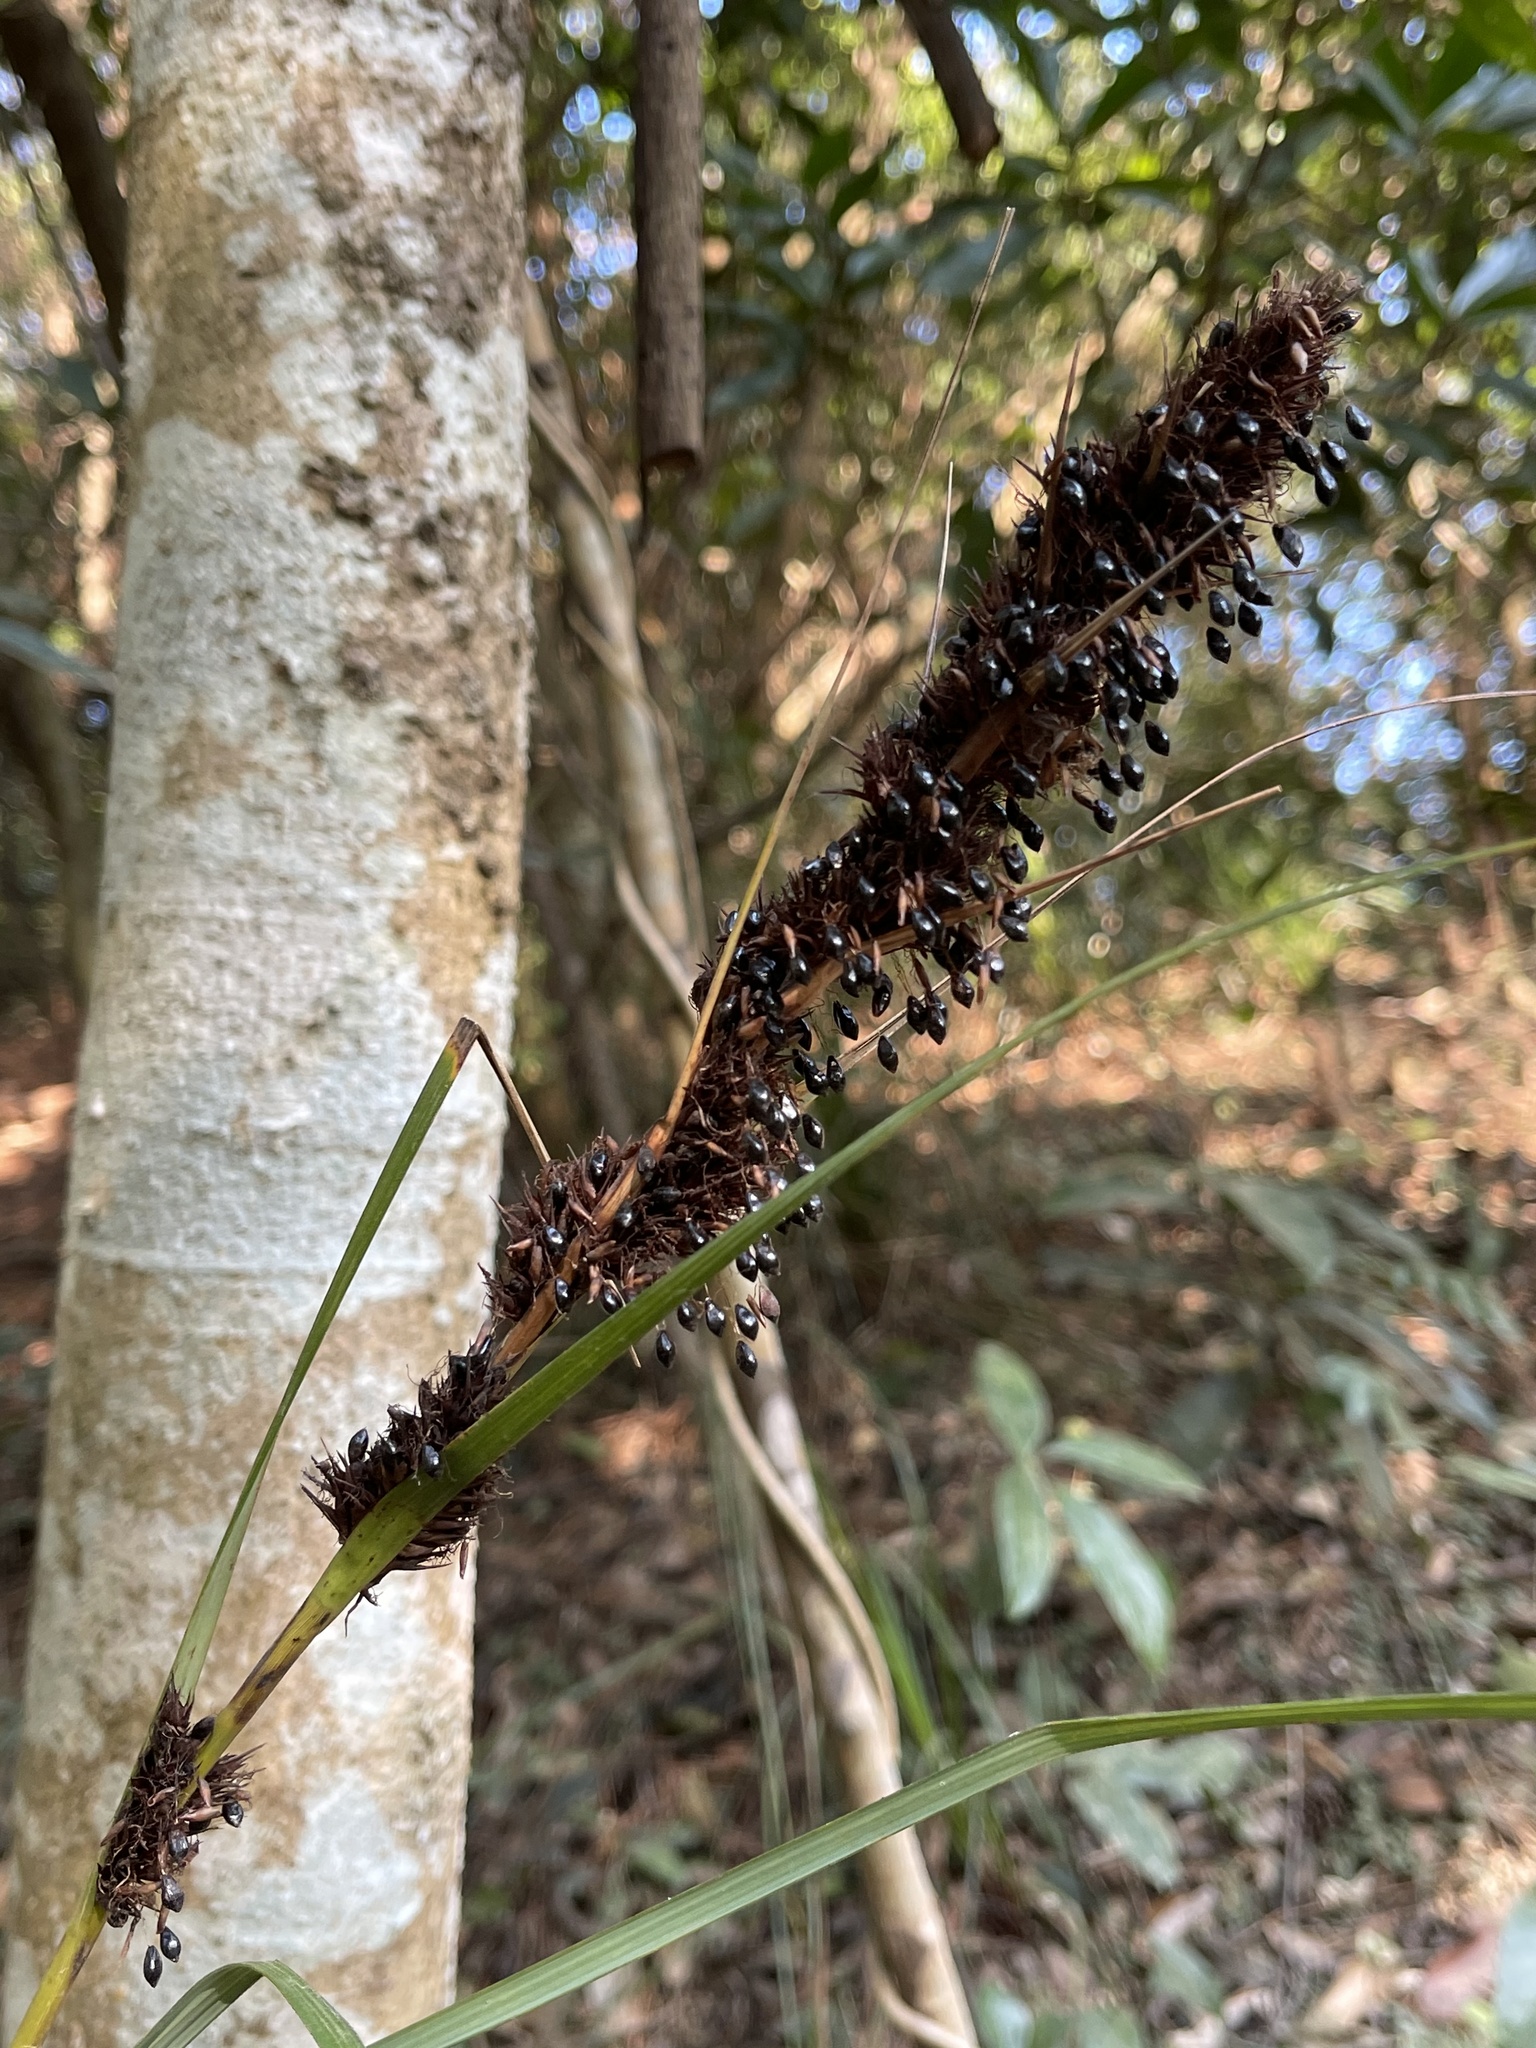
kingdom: Plantae
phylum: Tracheophyta
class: Liliopsida
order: Poales
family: Cyperaceae
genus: Gahnia
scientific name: Gahnia tristis
